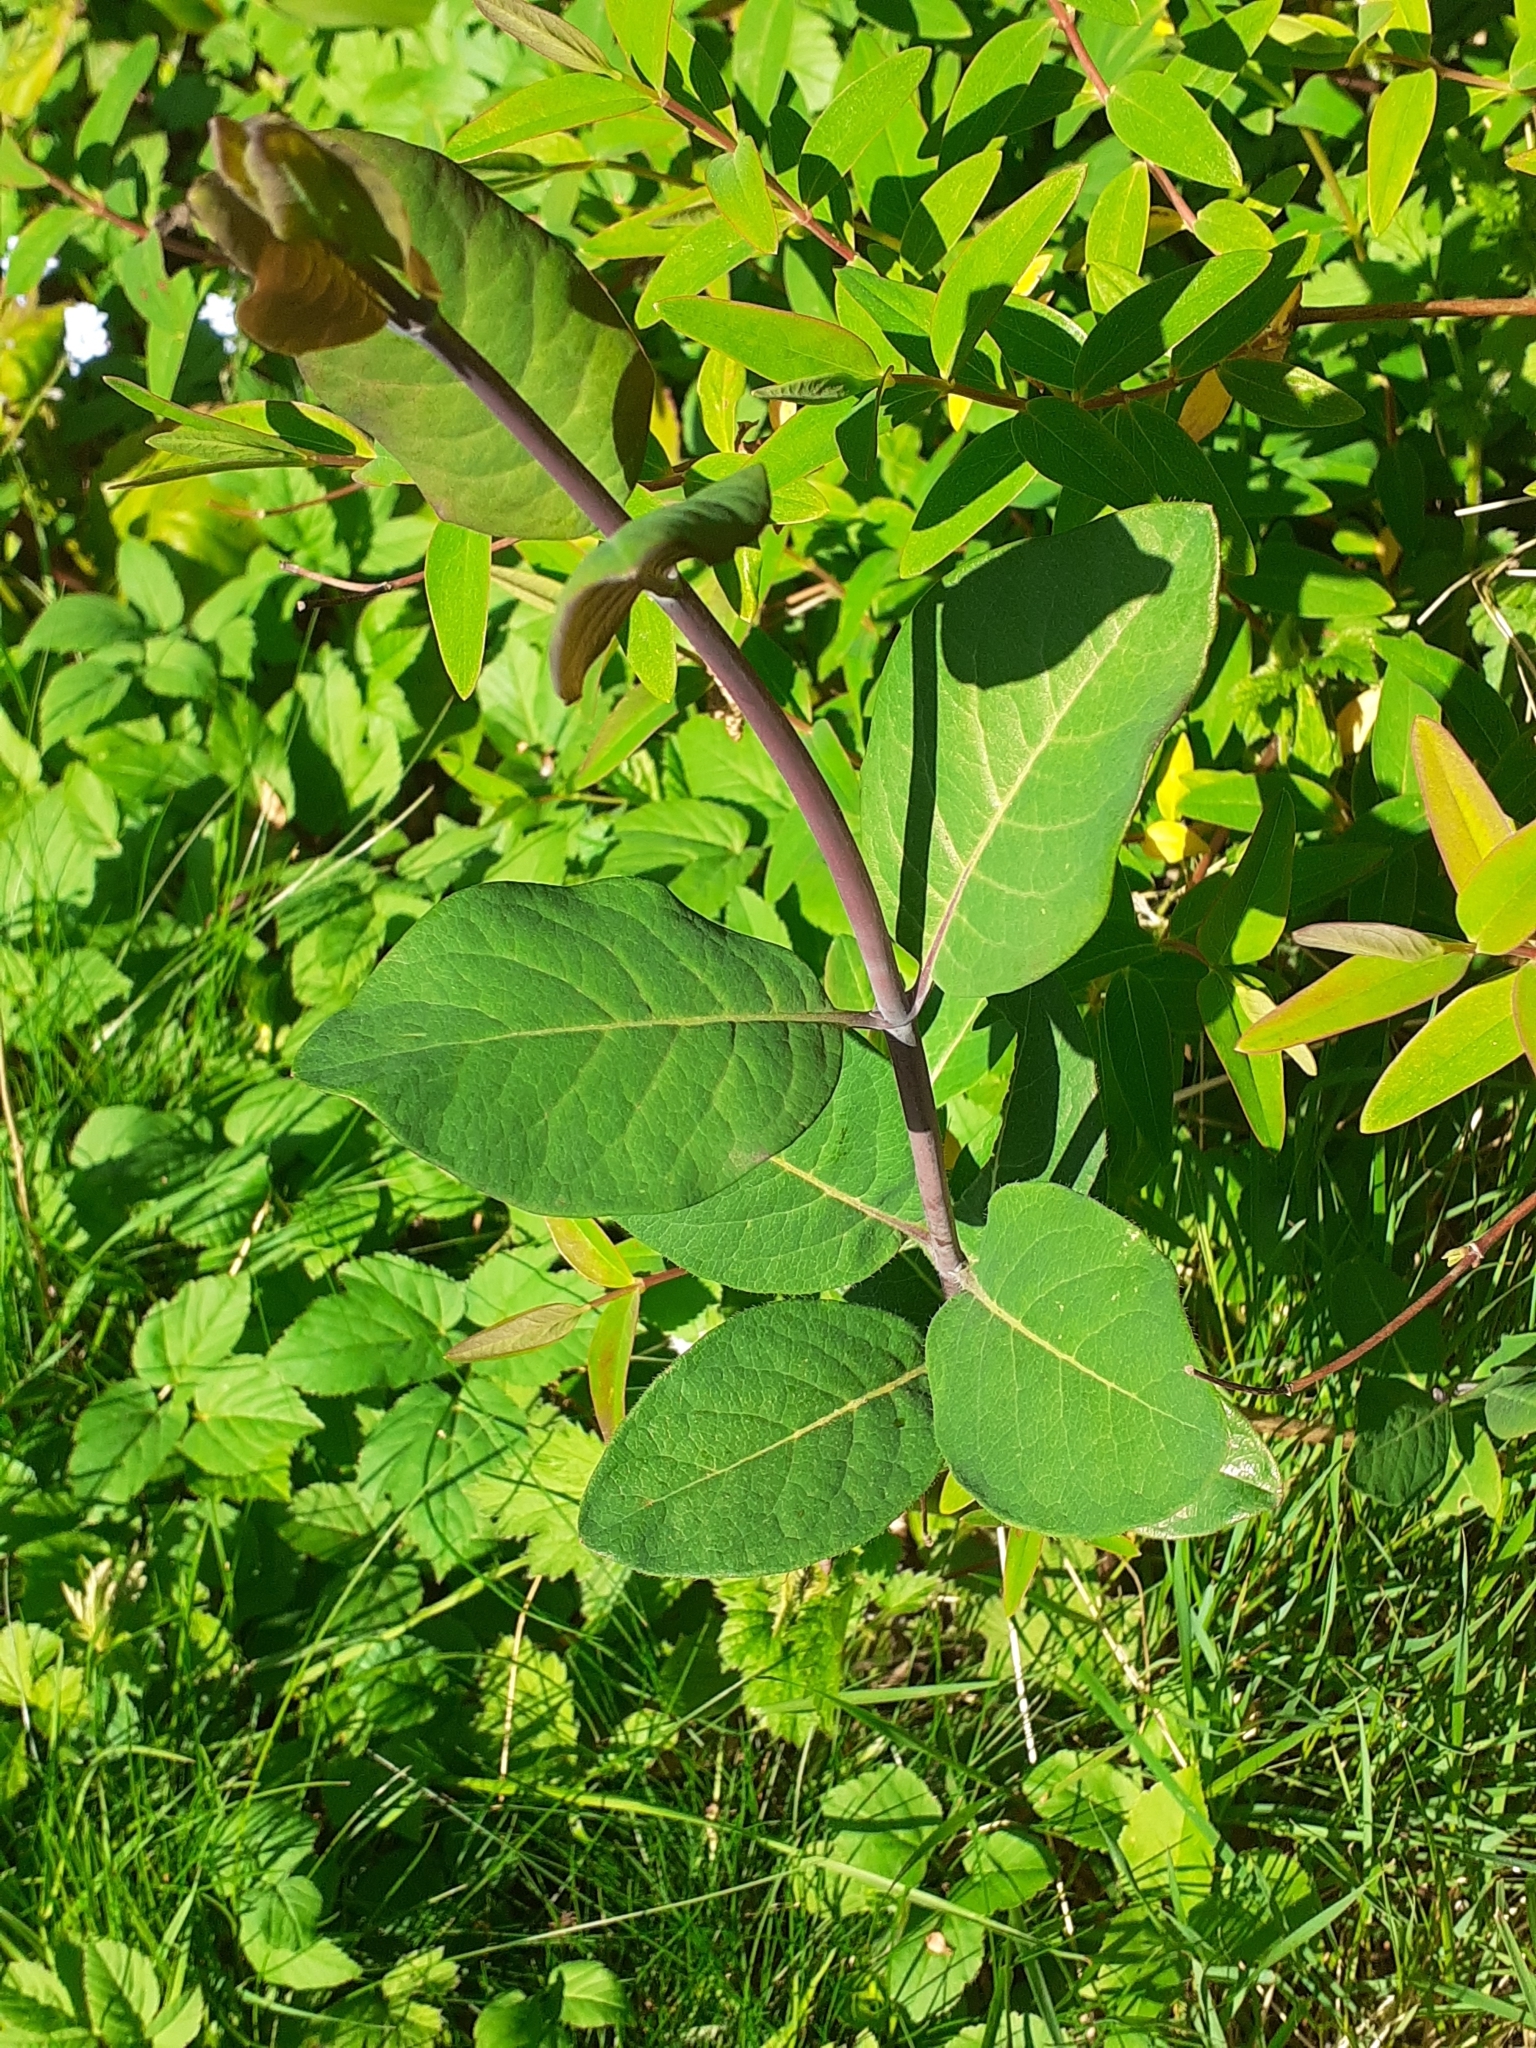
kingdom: Plantae
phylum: Tracheophyta
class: Magnoliopsida
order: Dipsacales
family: Caprifoliaceae
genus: Lonicera
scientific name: Lonicera periclymenum
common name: European honeysuckle
